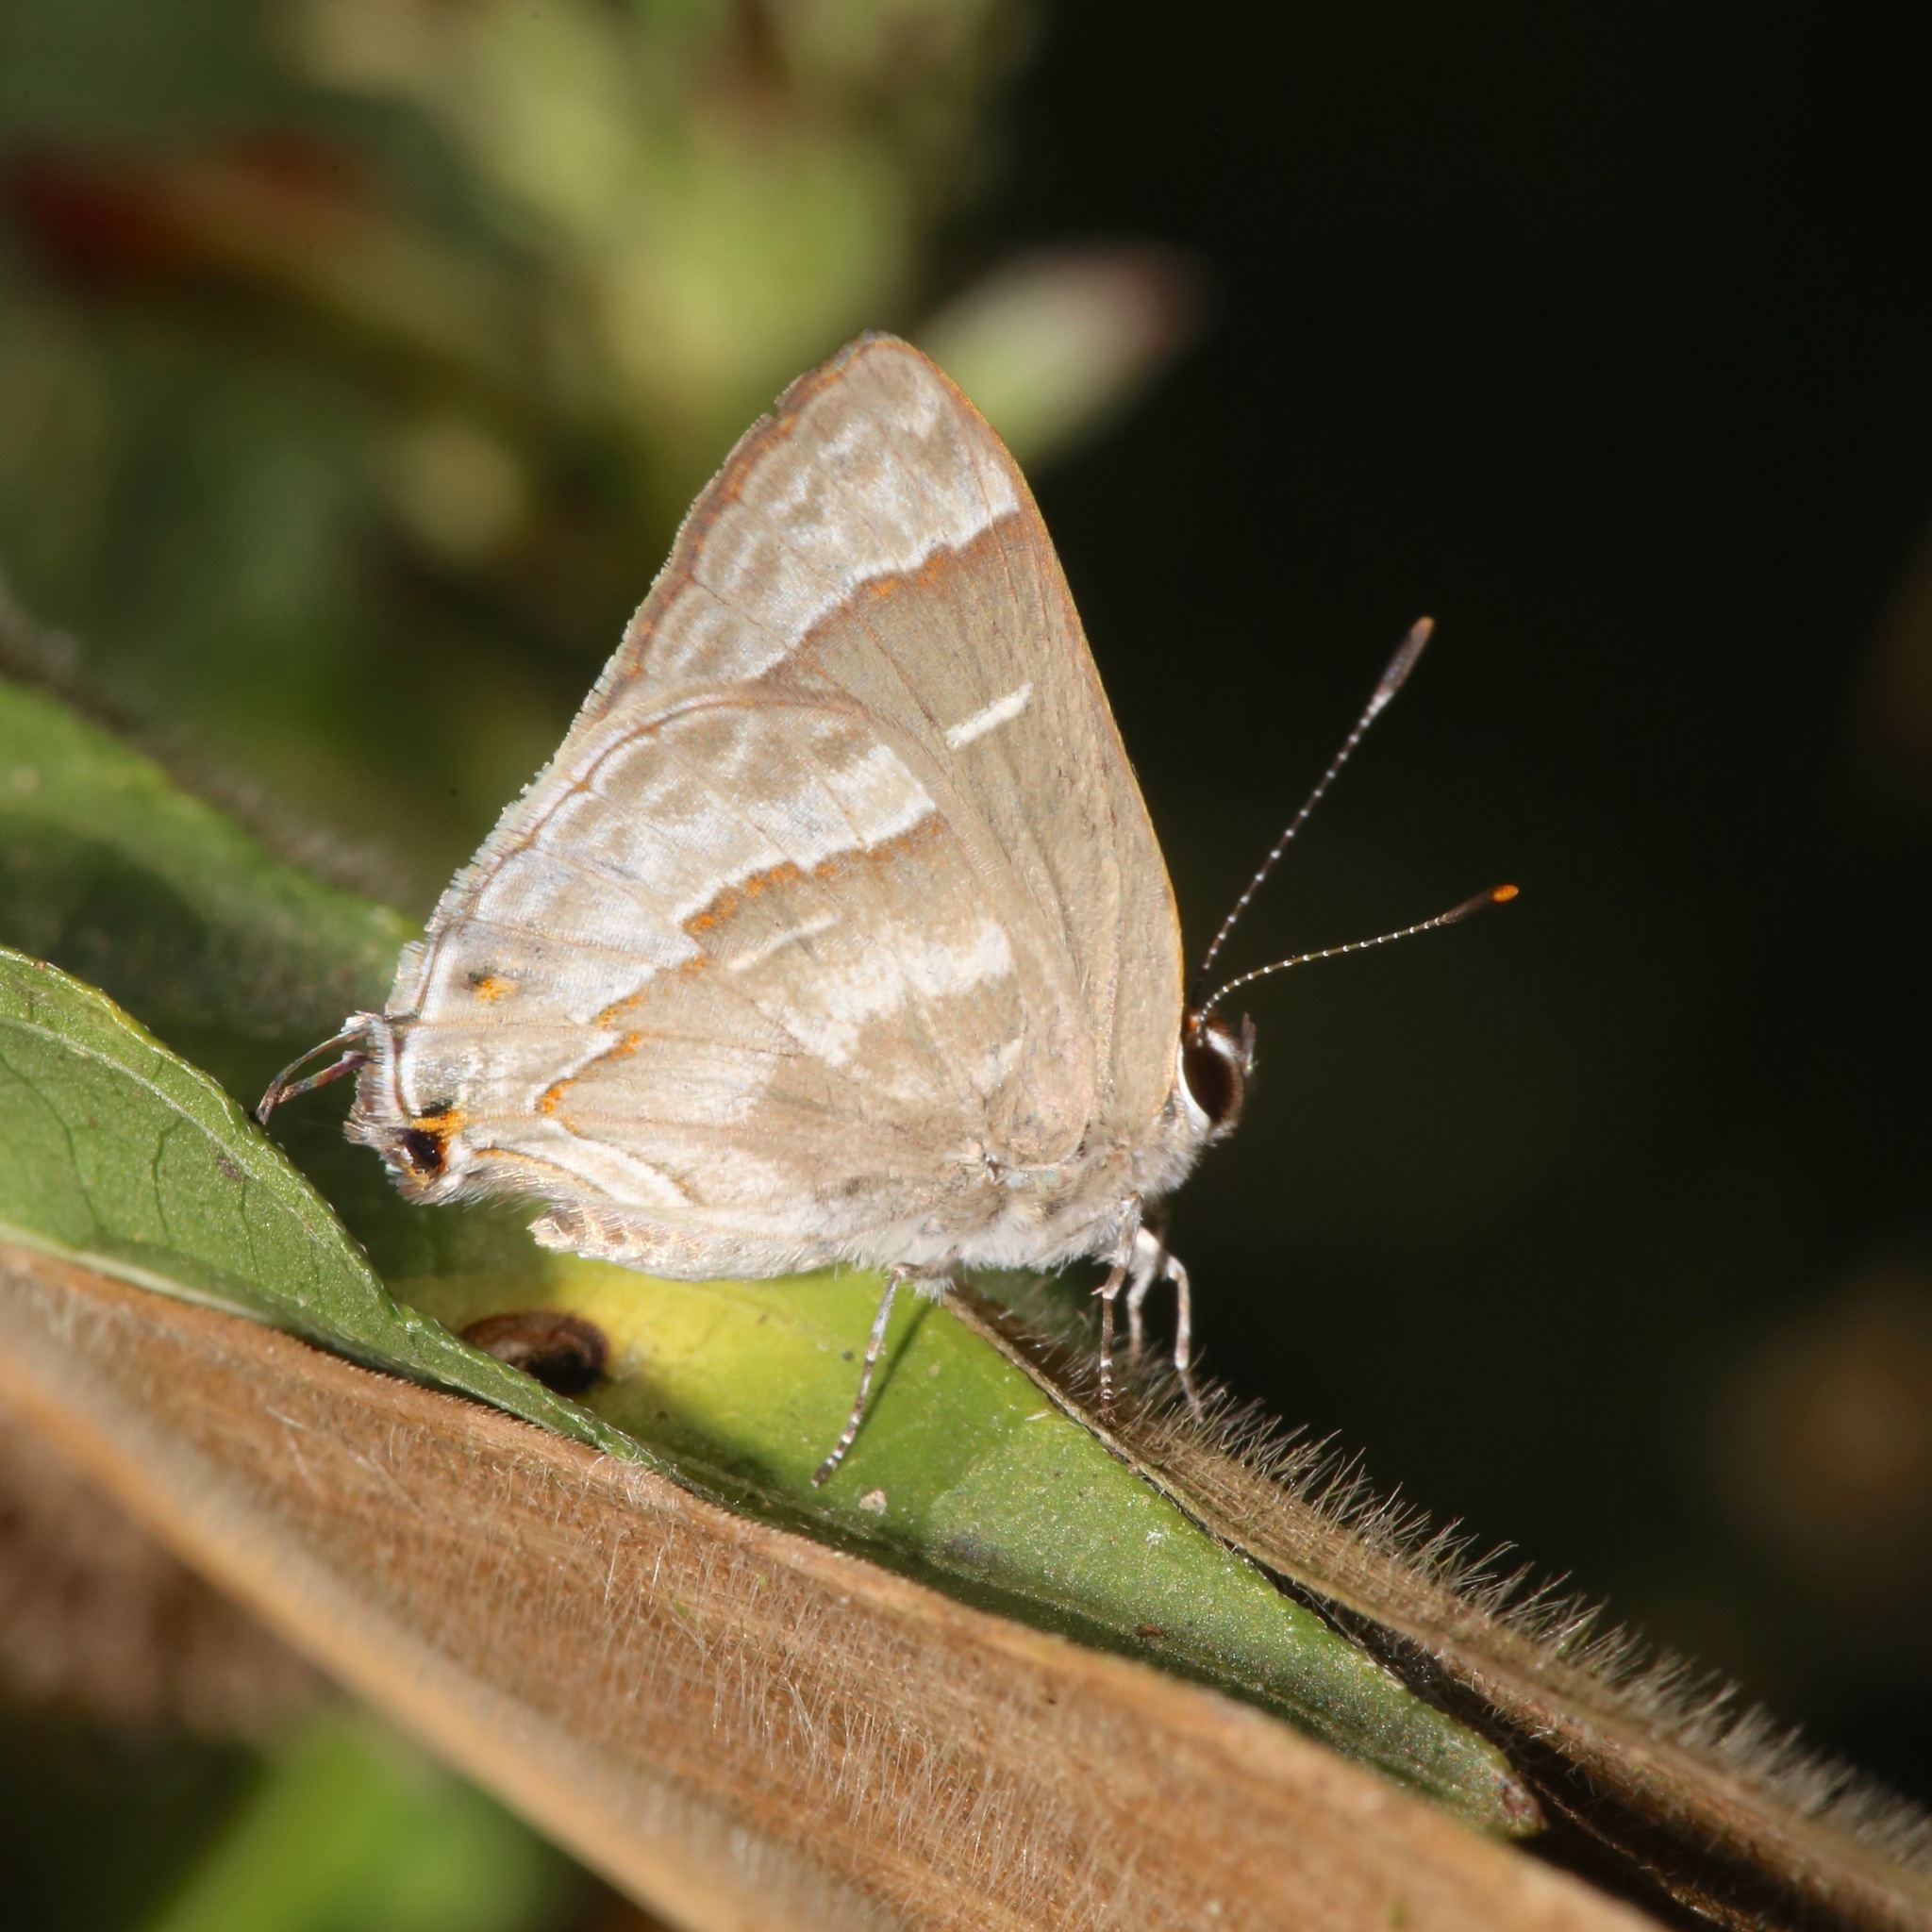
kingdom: Animalia
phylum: Arthropoda
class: Insecta
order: Lepidoptera
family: Lycaenidae
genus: Thecla
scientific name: Thecla yojoa
